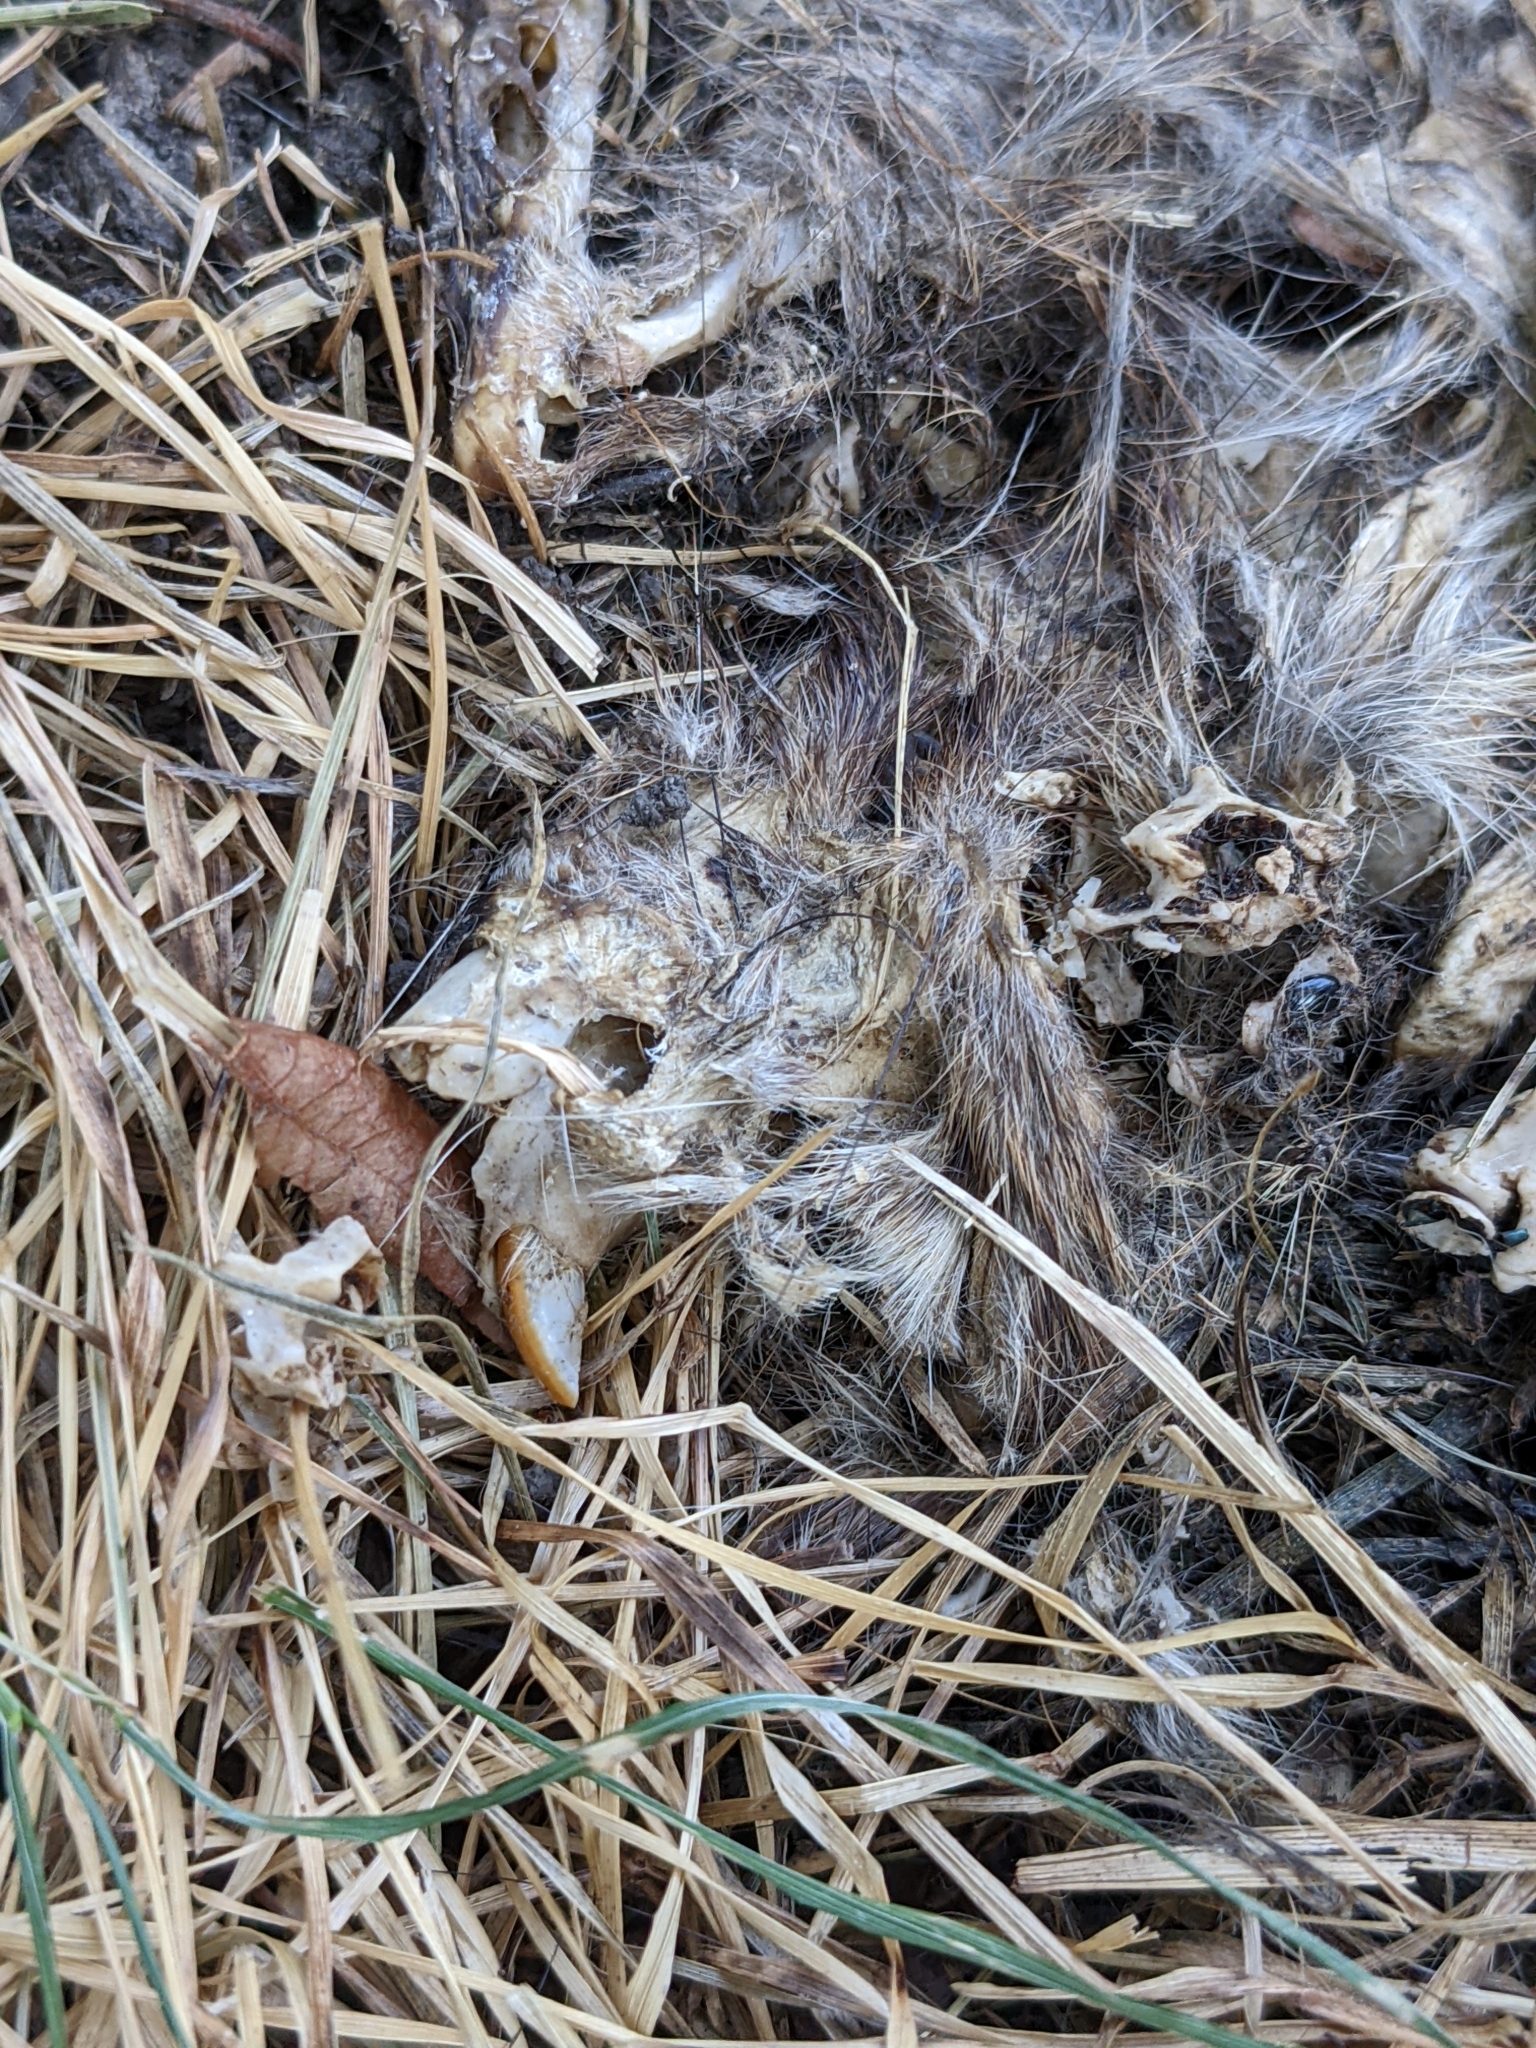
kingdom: Animalia
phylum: Chordata
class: Mammalia
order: Rodentia
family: Sciuridae
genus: Sciurus
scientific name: Sciurus carolinensis
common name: Eastern gray squirrel
